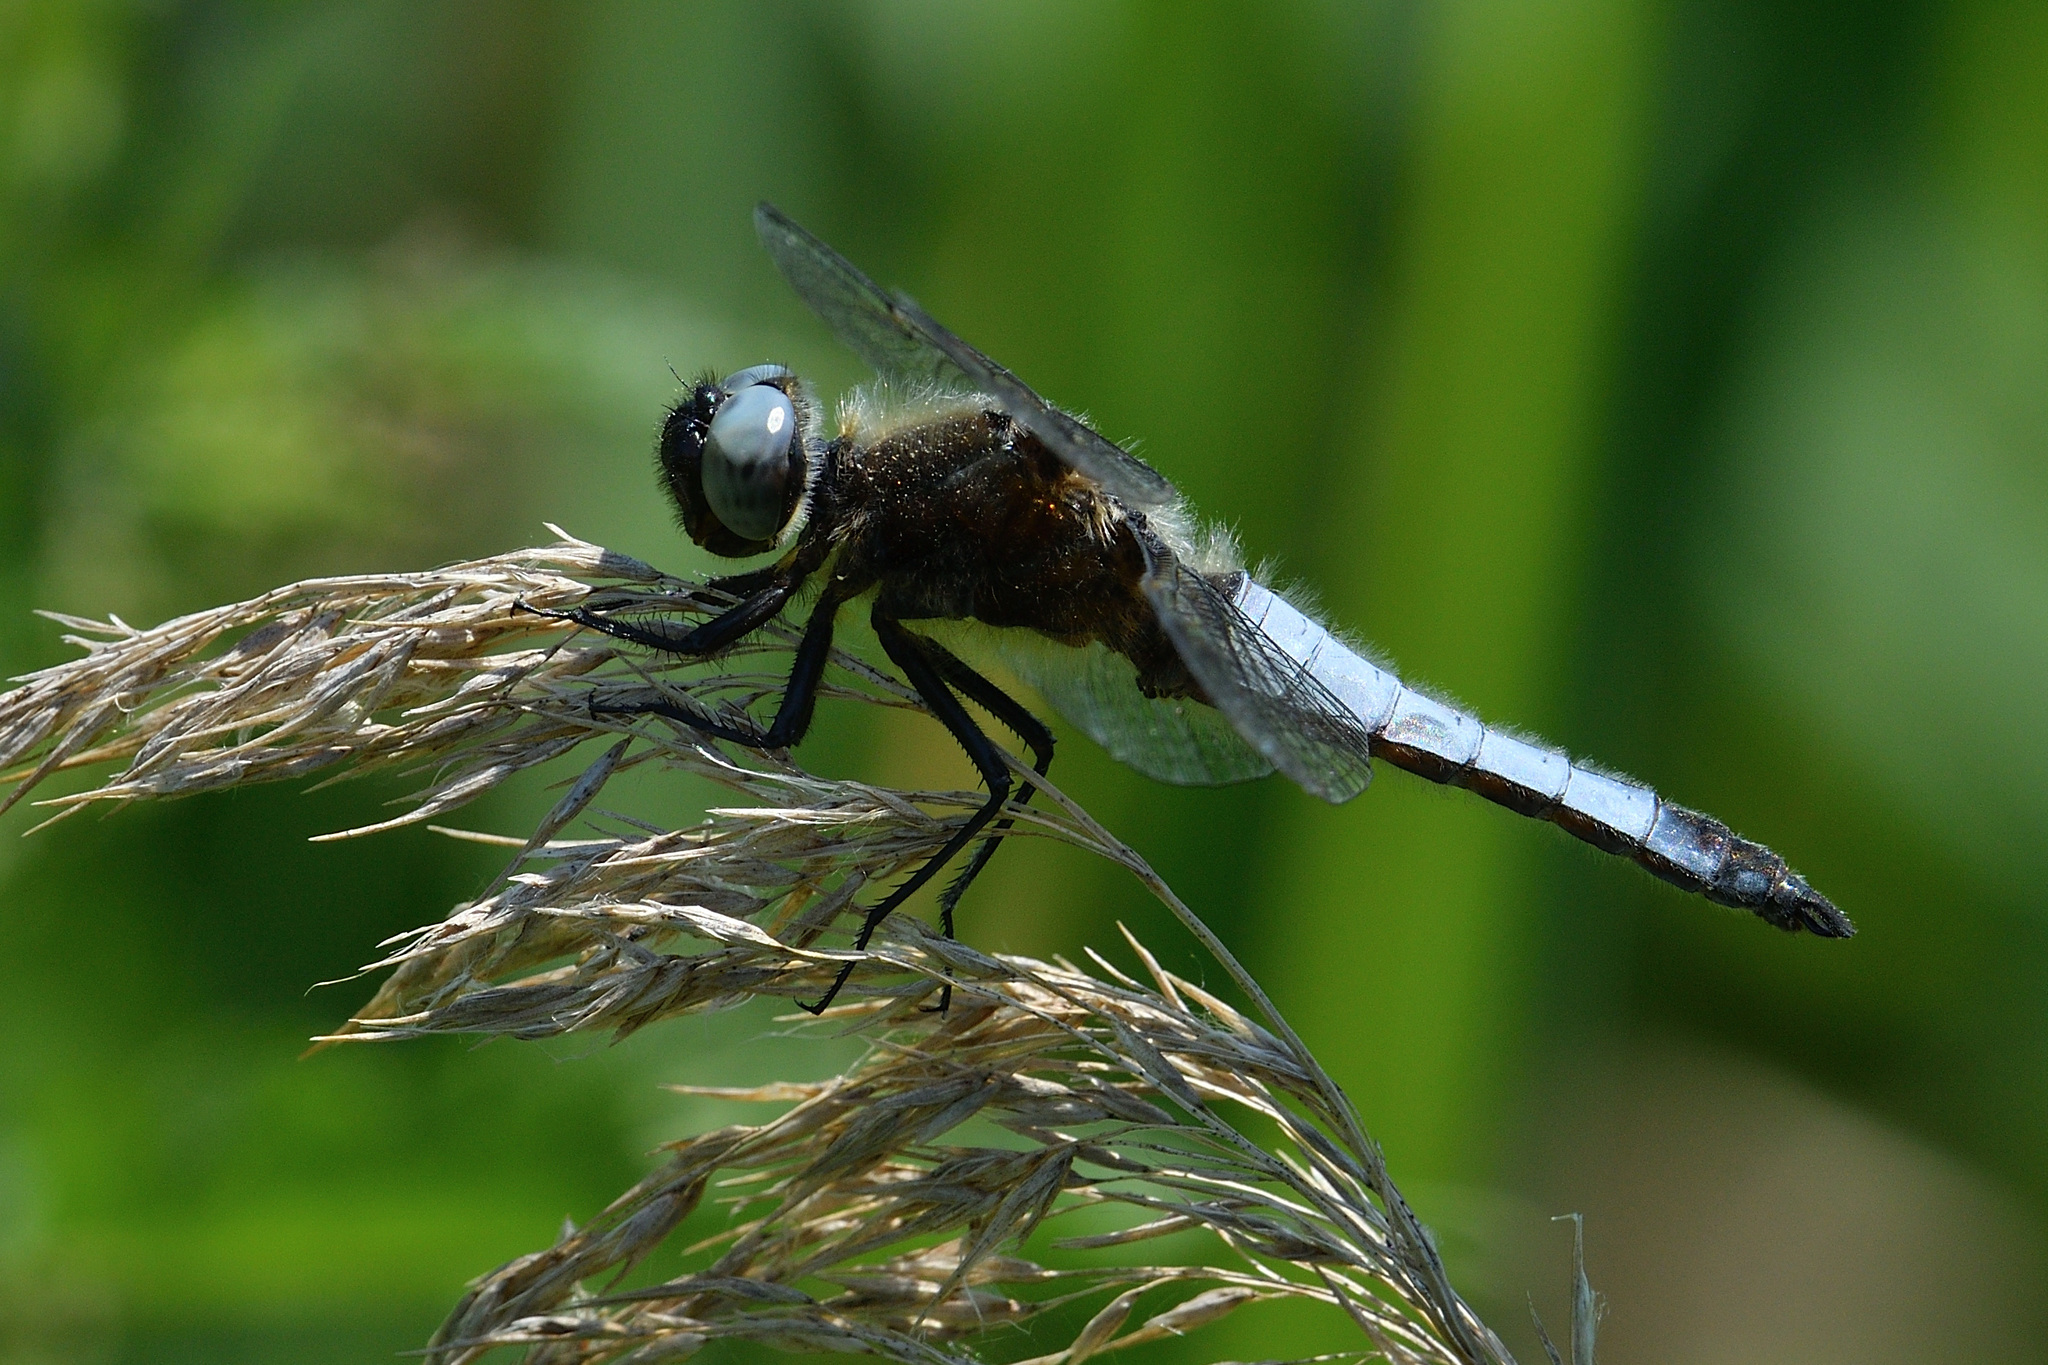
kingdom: Animalia
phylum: Arthropoda
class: Insecta
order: Odonata
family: Libellulidae
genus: Libellula
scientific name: Libellula fulva
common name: Blue chaser
